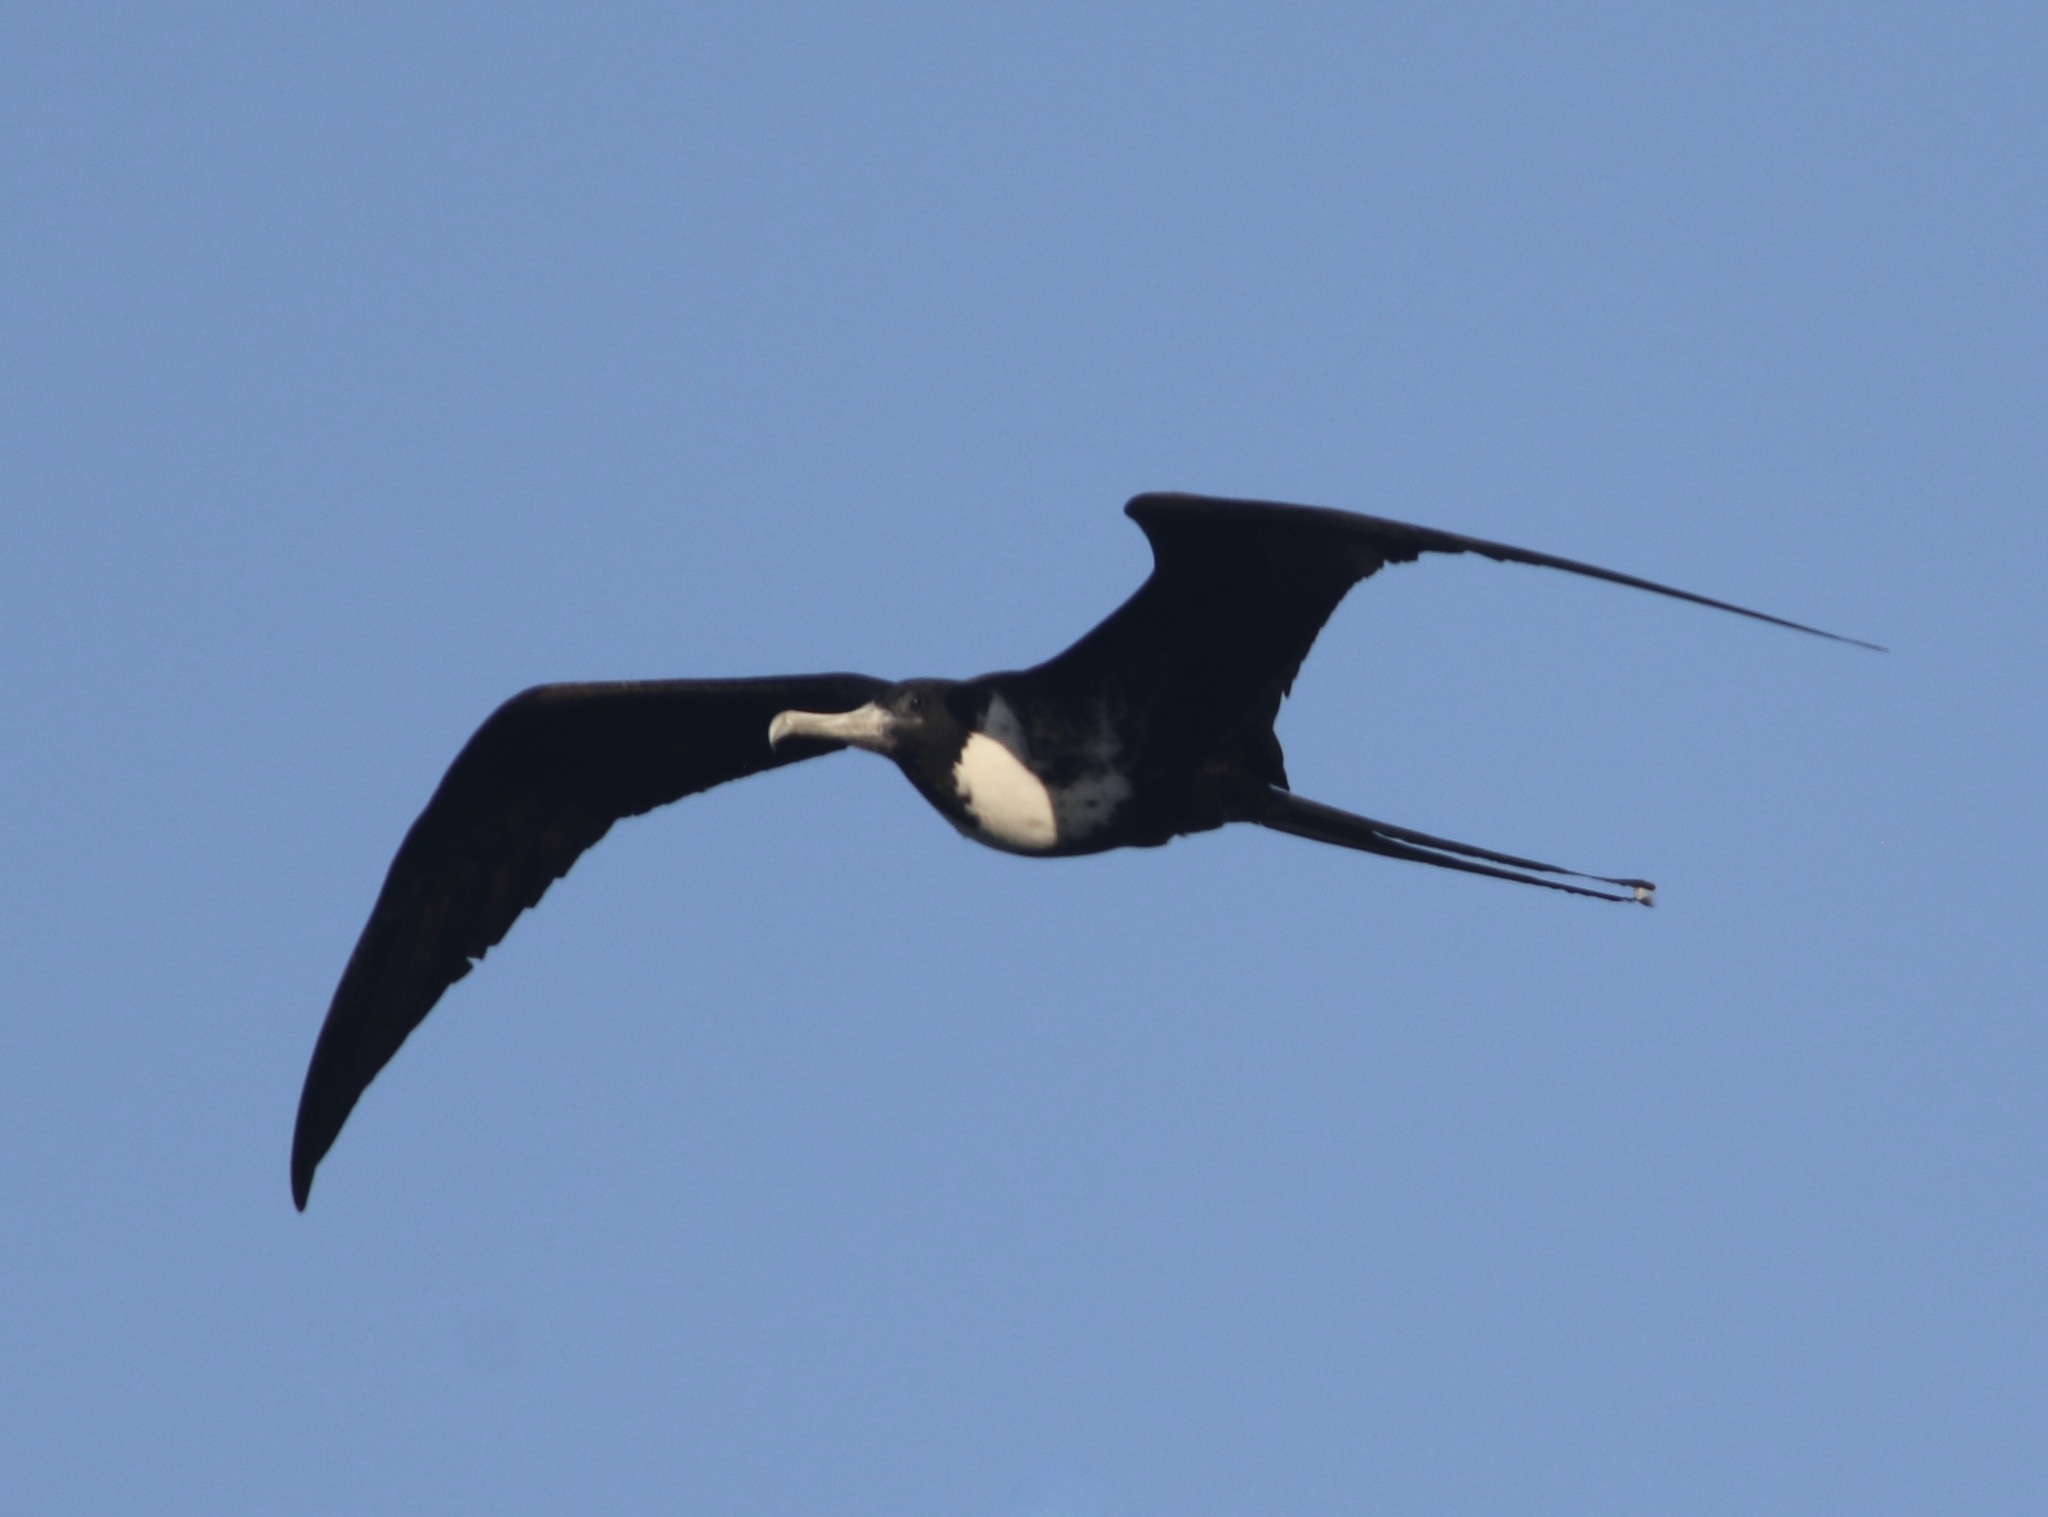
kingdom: Animalia
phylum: Chordata
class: Aves
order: Suliformes
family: Fregatidae
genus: Fregata
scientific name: Fregata magnificens
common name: Magnificent frigatebird
